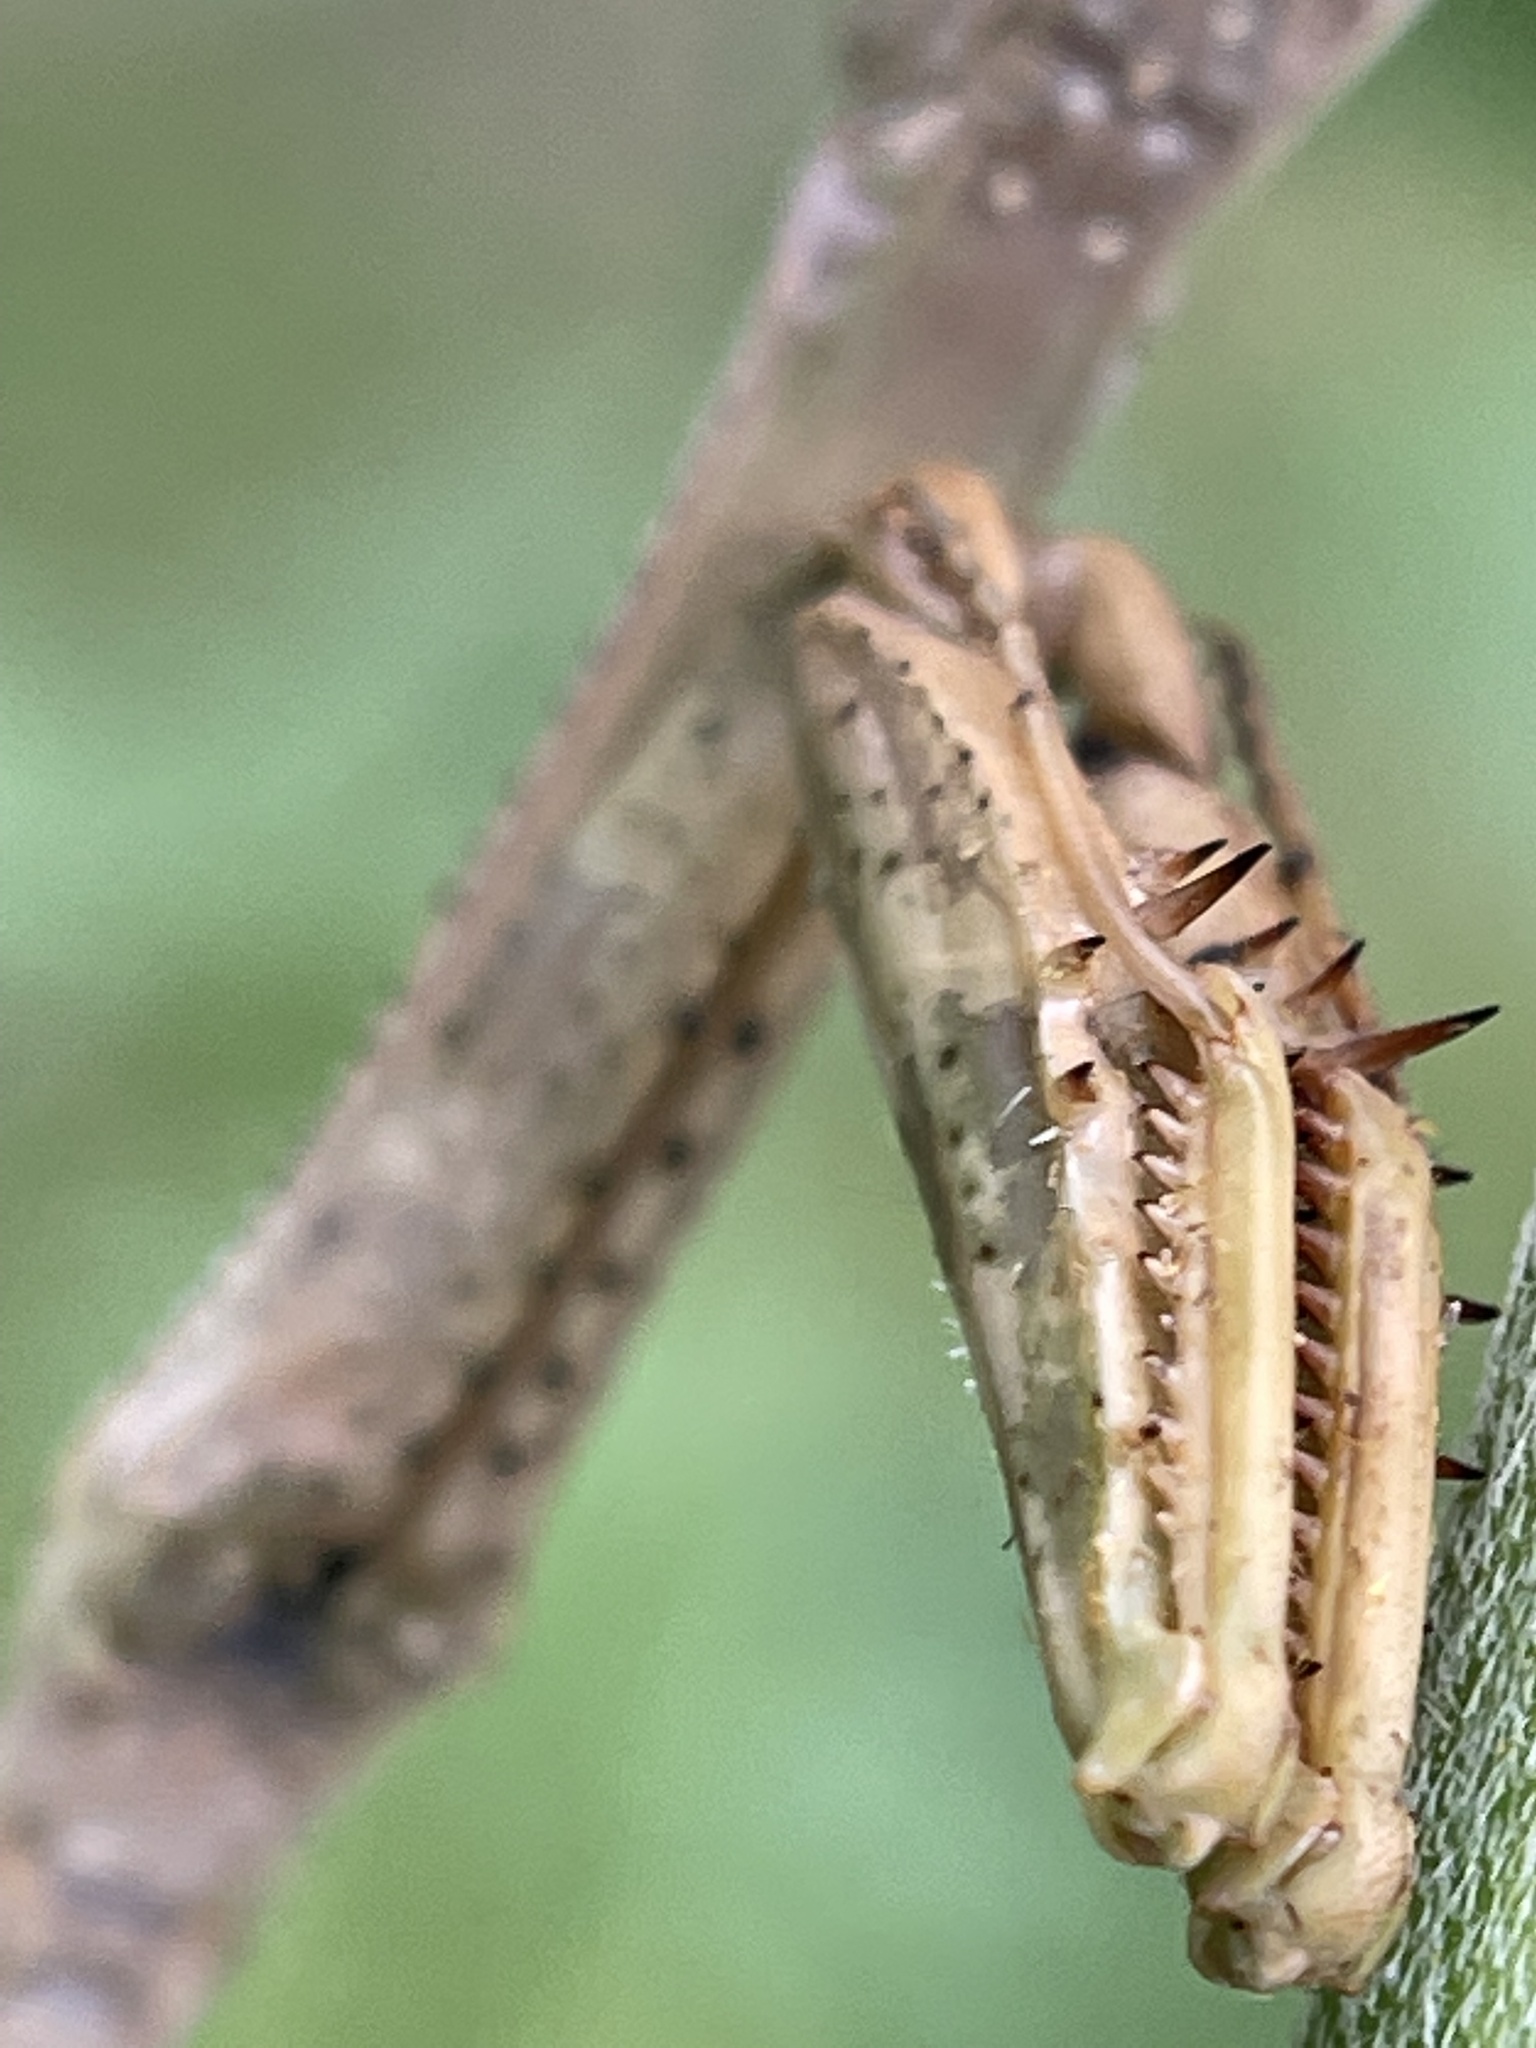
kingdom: Animalia
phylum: Arthropoda
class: Insecta
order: Mantodea
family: Mantidae
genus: Stagmomantis
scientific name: Stagmomantis carolina
